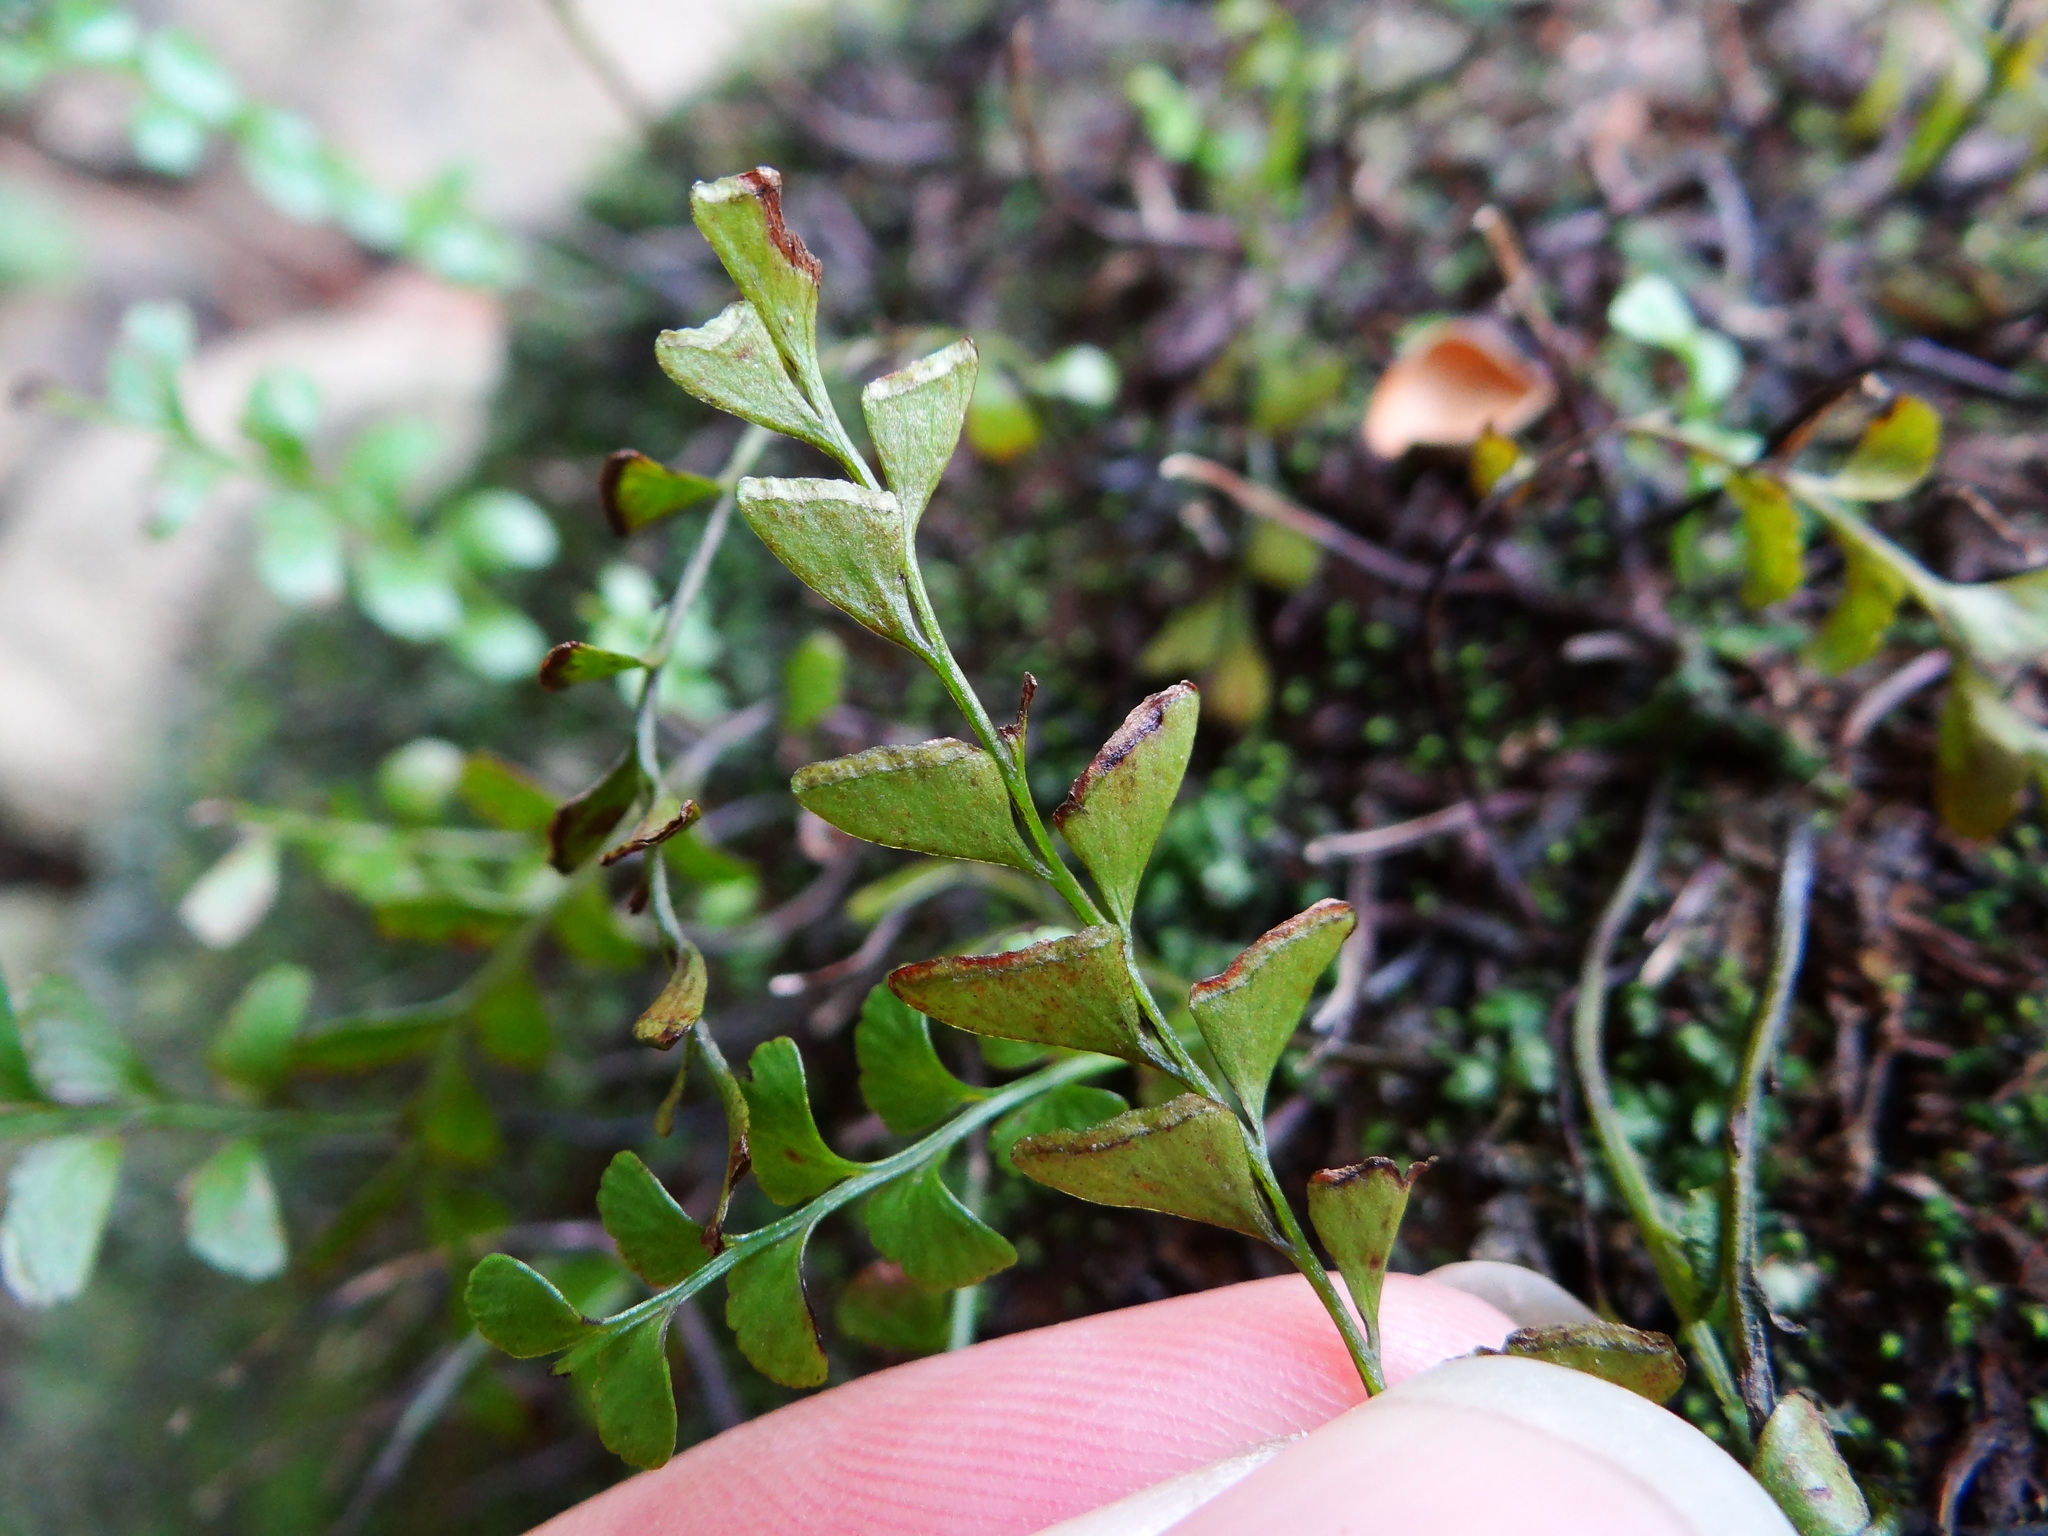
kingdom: Plantae
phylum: Tracheophyta
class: Polypodiopsida
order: Polypodiales
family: Lindsaeaceae
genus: Osmolindsaea
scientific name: Osmolindsaea japonica
